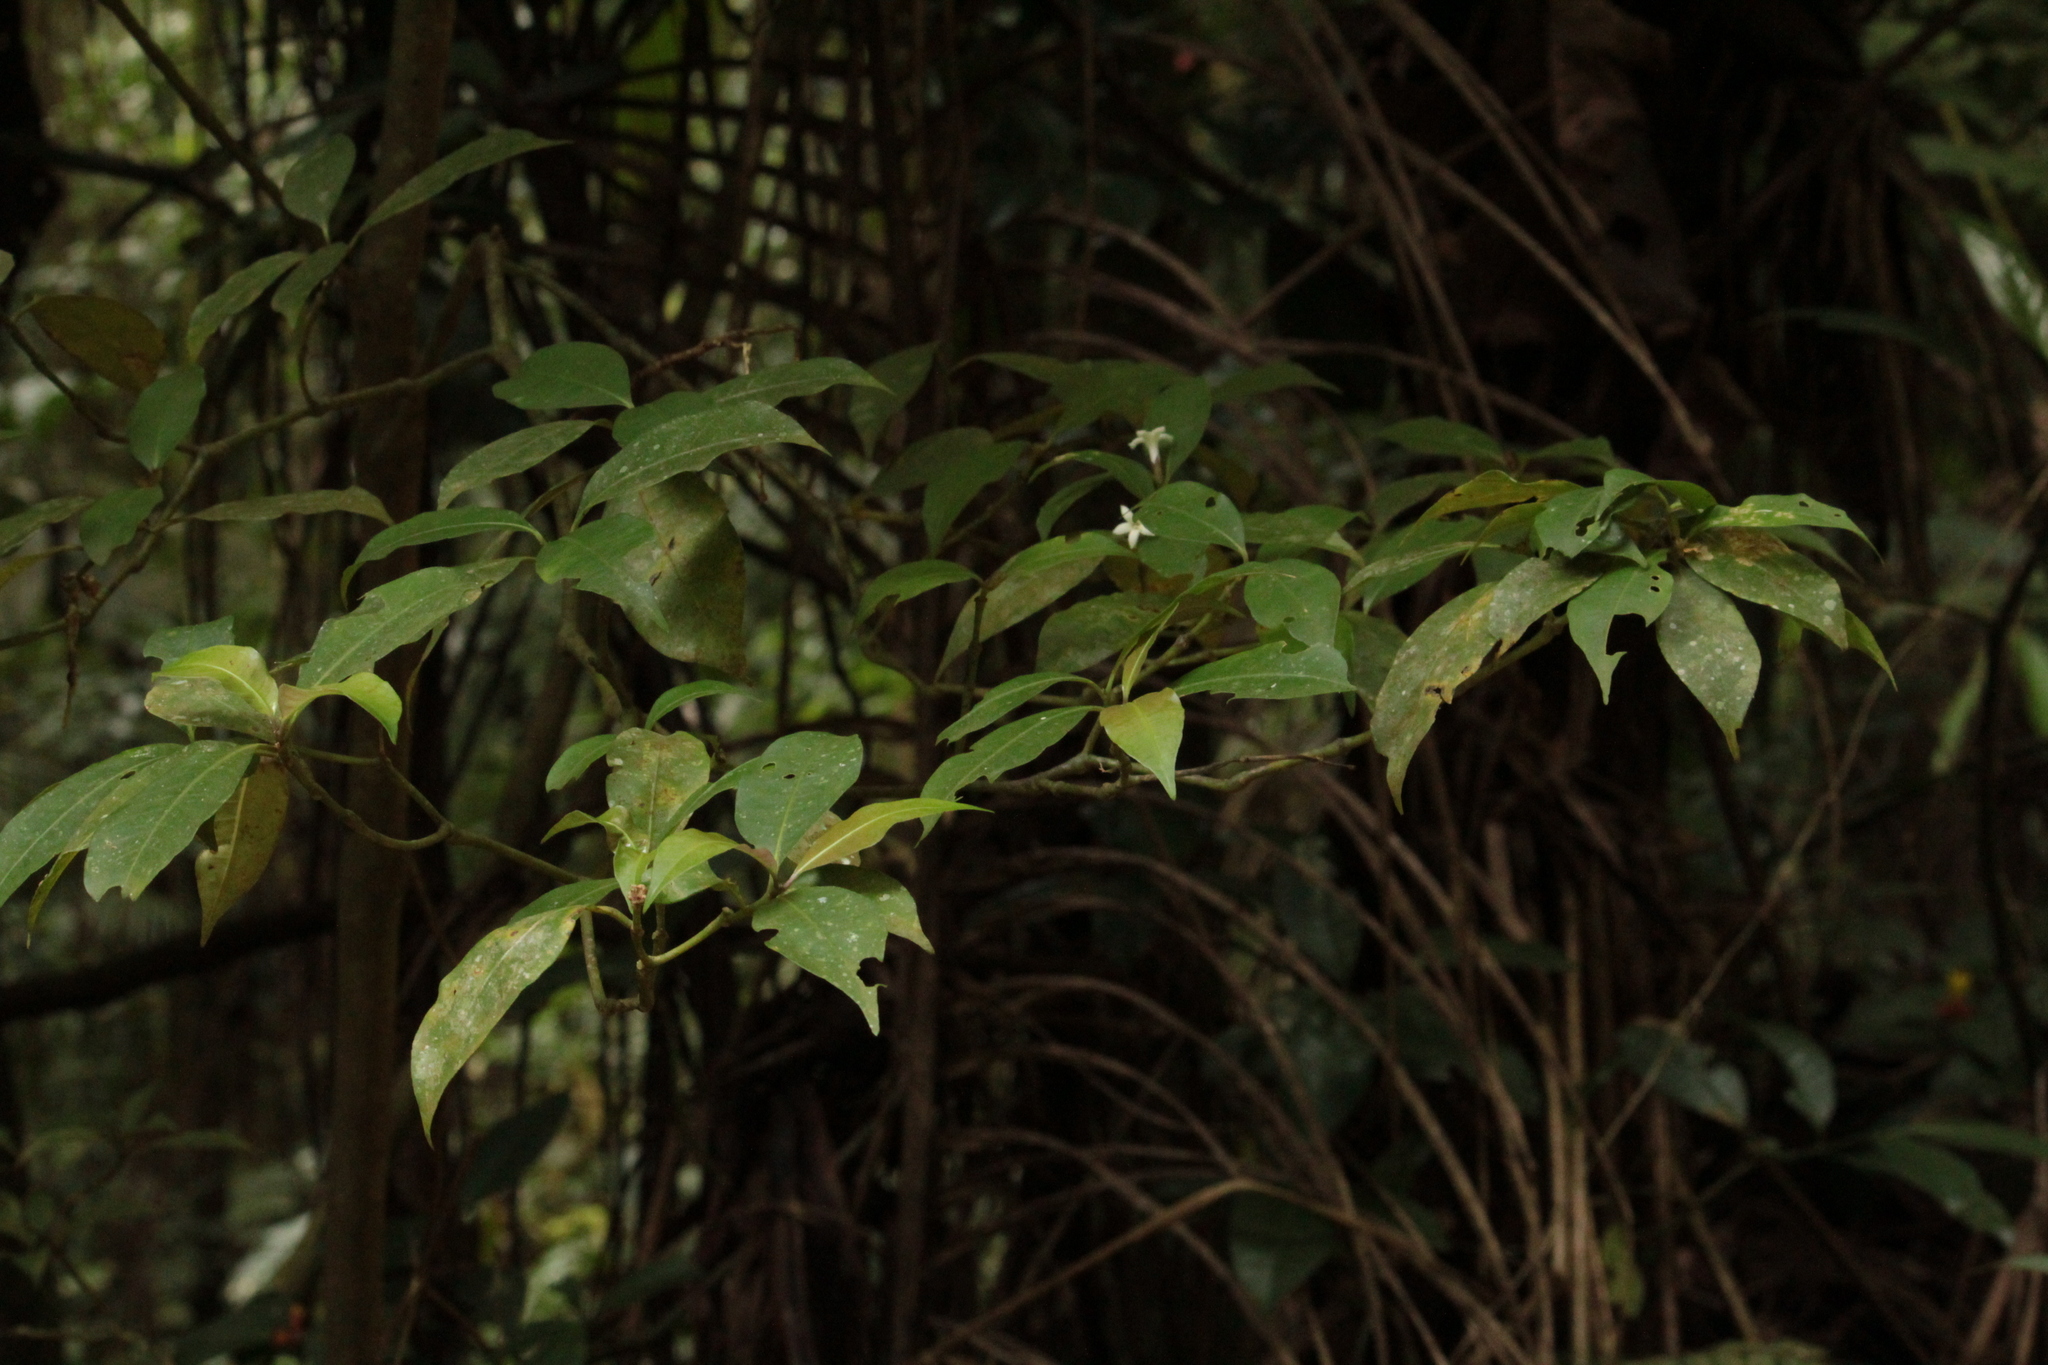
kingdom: Plantae
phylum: Tracheophyta
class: Magnoliopsida
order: Gentianales
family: Rubiaceae
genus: Psychotria
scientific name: Psychotria suterella
